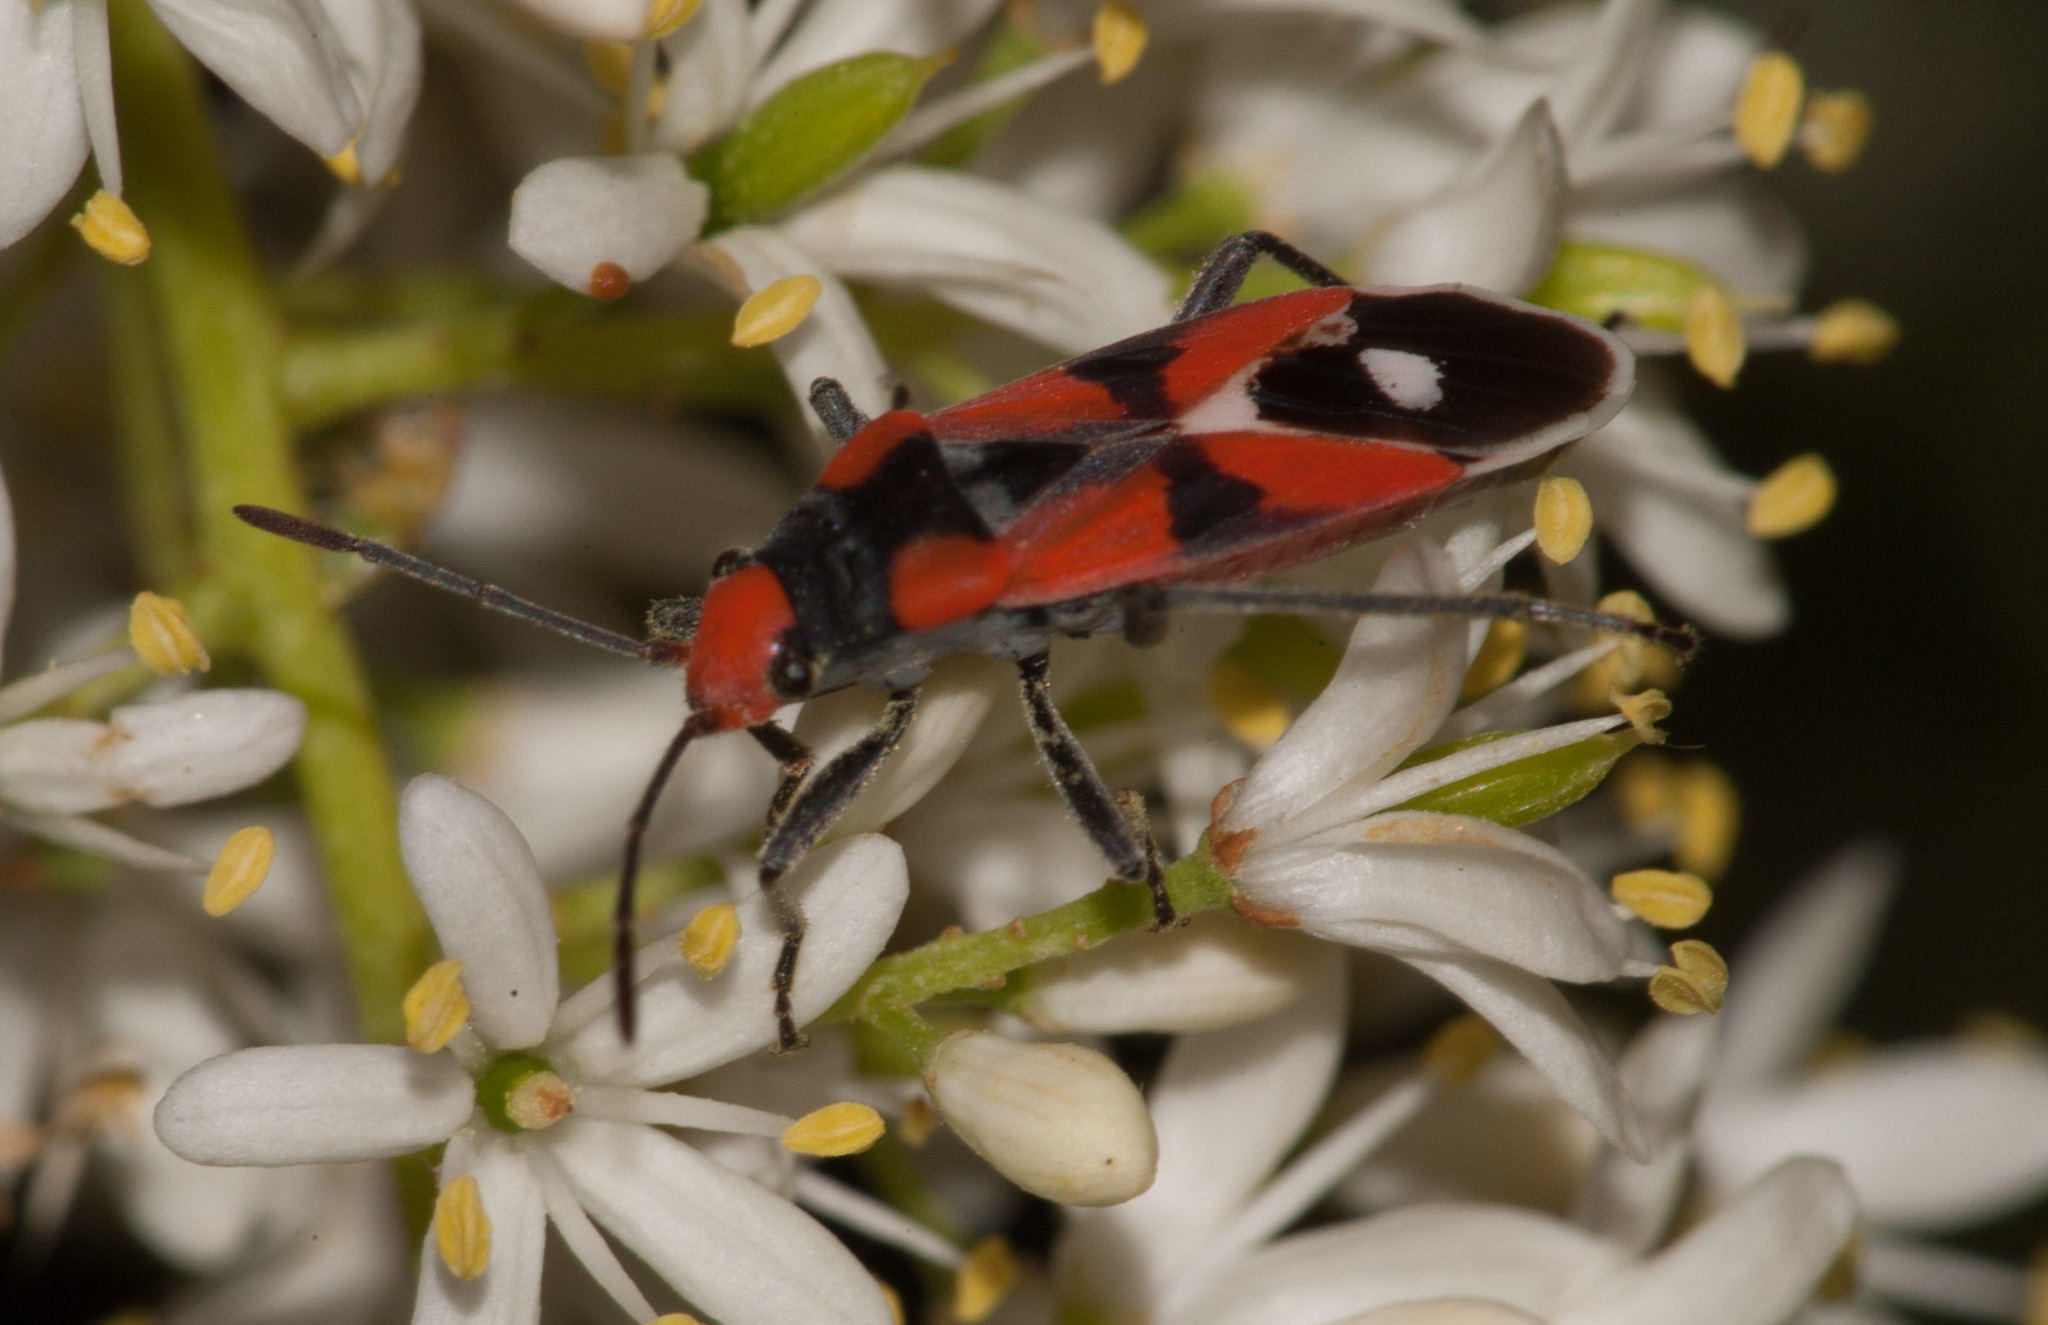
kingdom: Animalia
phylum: Arthropoda
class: Insecta
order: Hemiptera
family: Lygaeidae
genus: Melanerythrus
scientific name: Melanerythrus mactans
